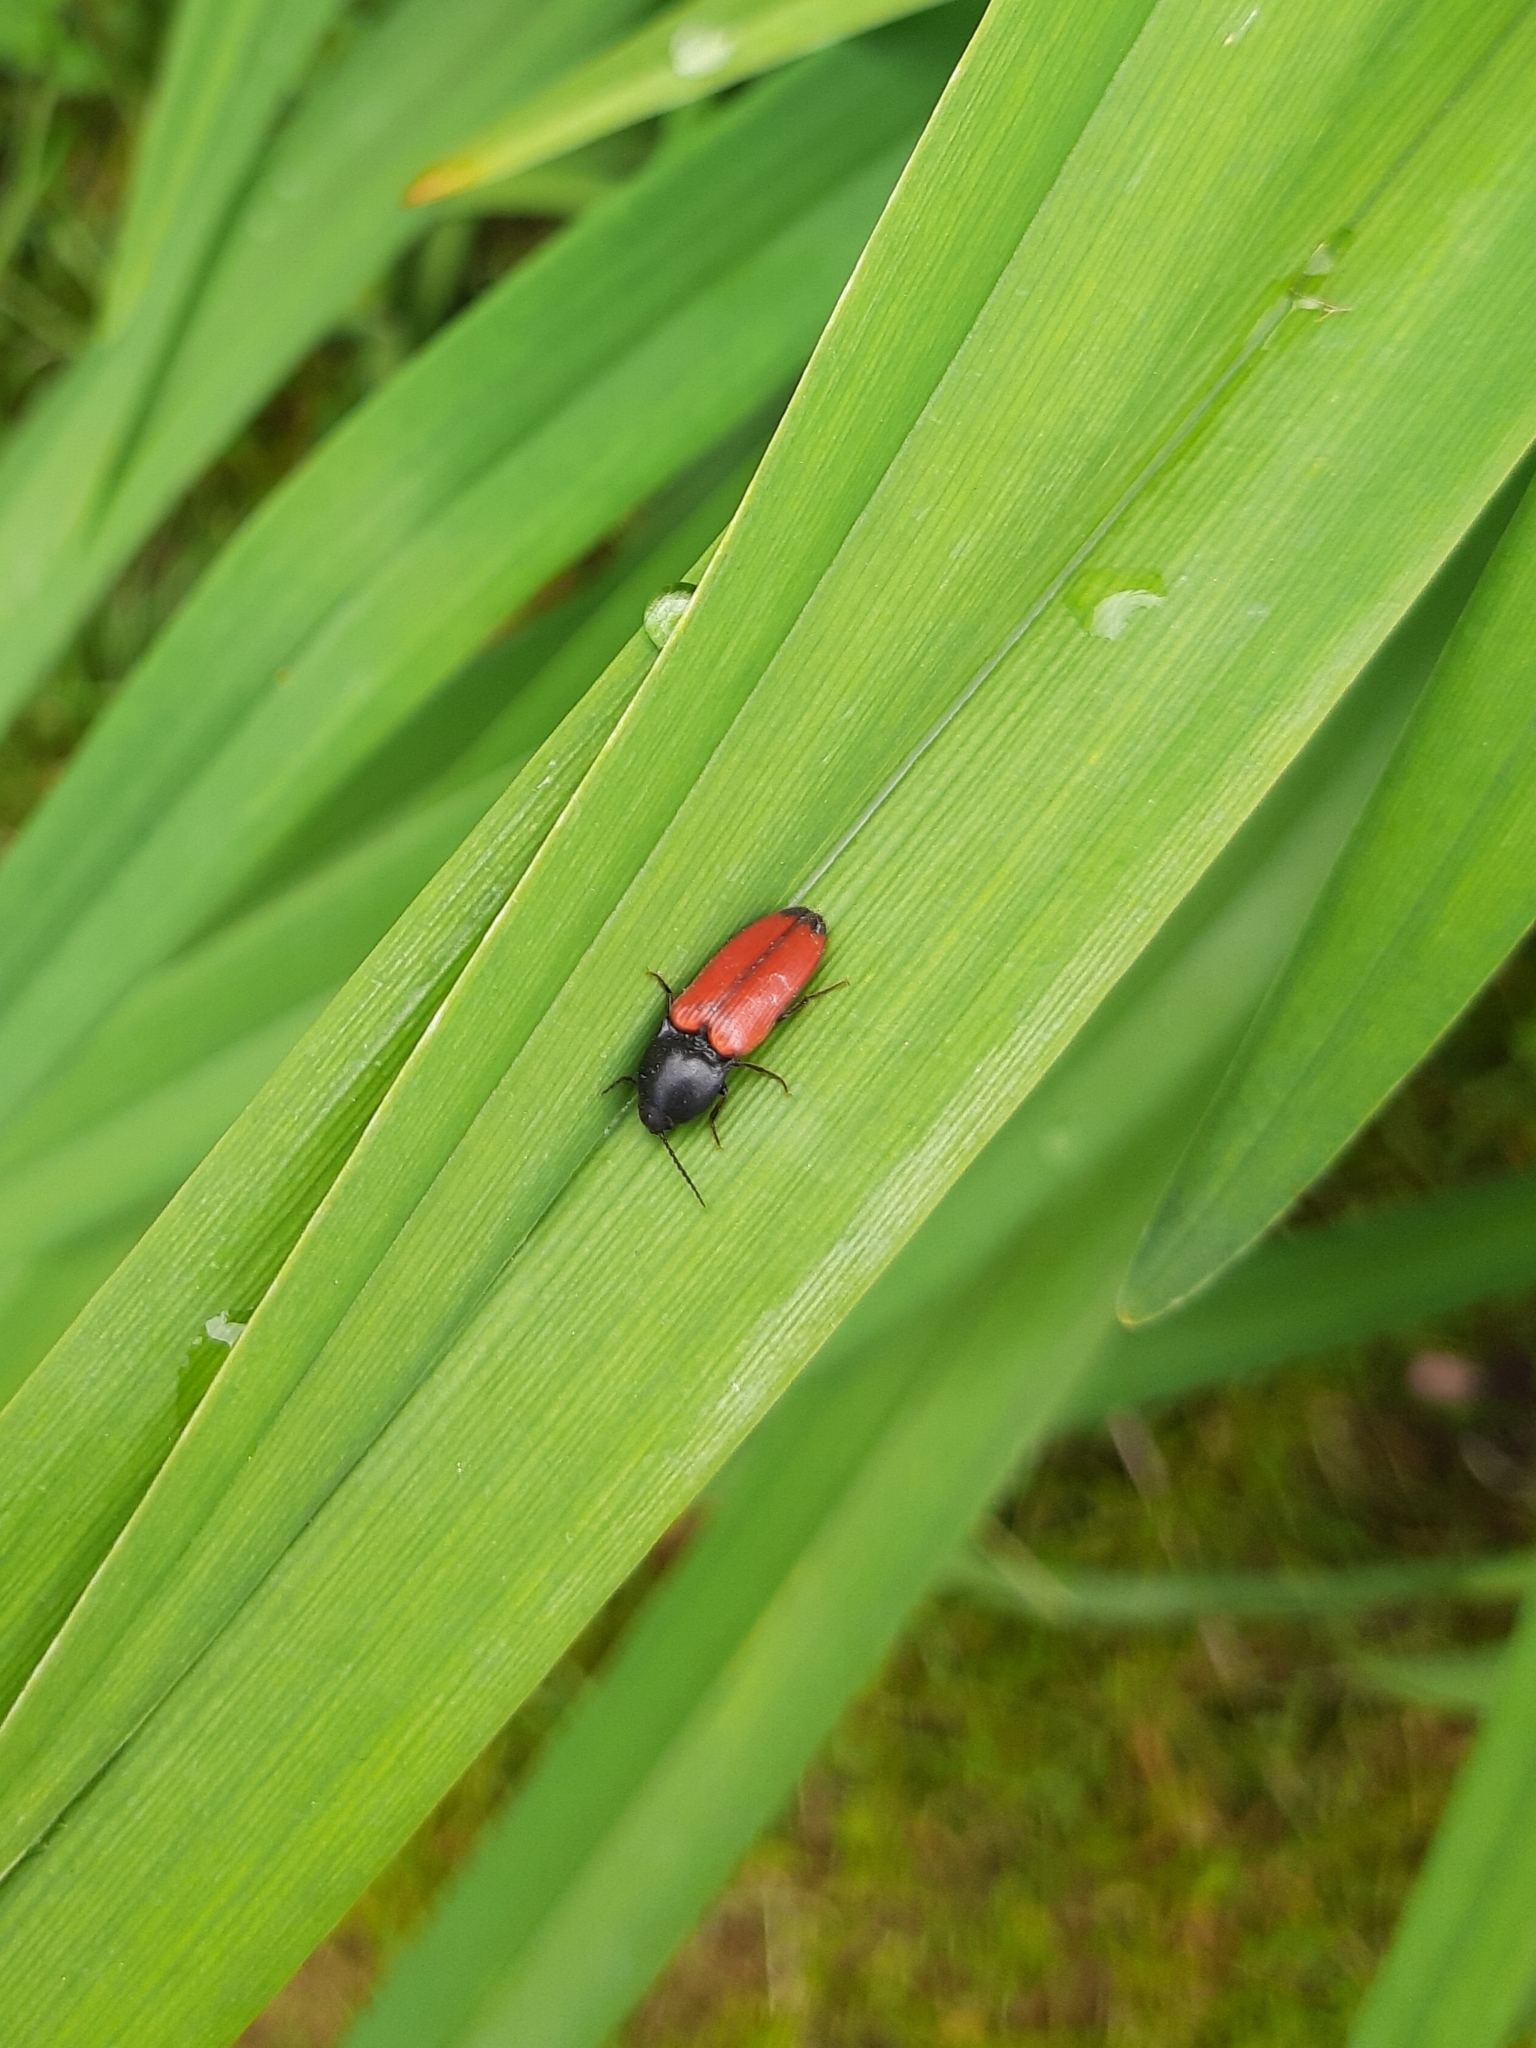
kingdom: Animalia
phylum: Arthropoda
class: Insecta
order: Coleoptera
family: Elateridae
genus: Ampedus
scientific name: Ampedus praeustus
